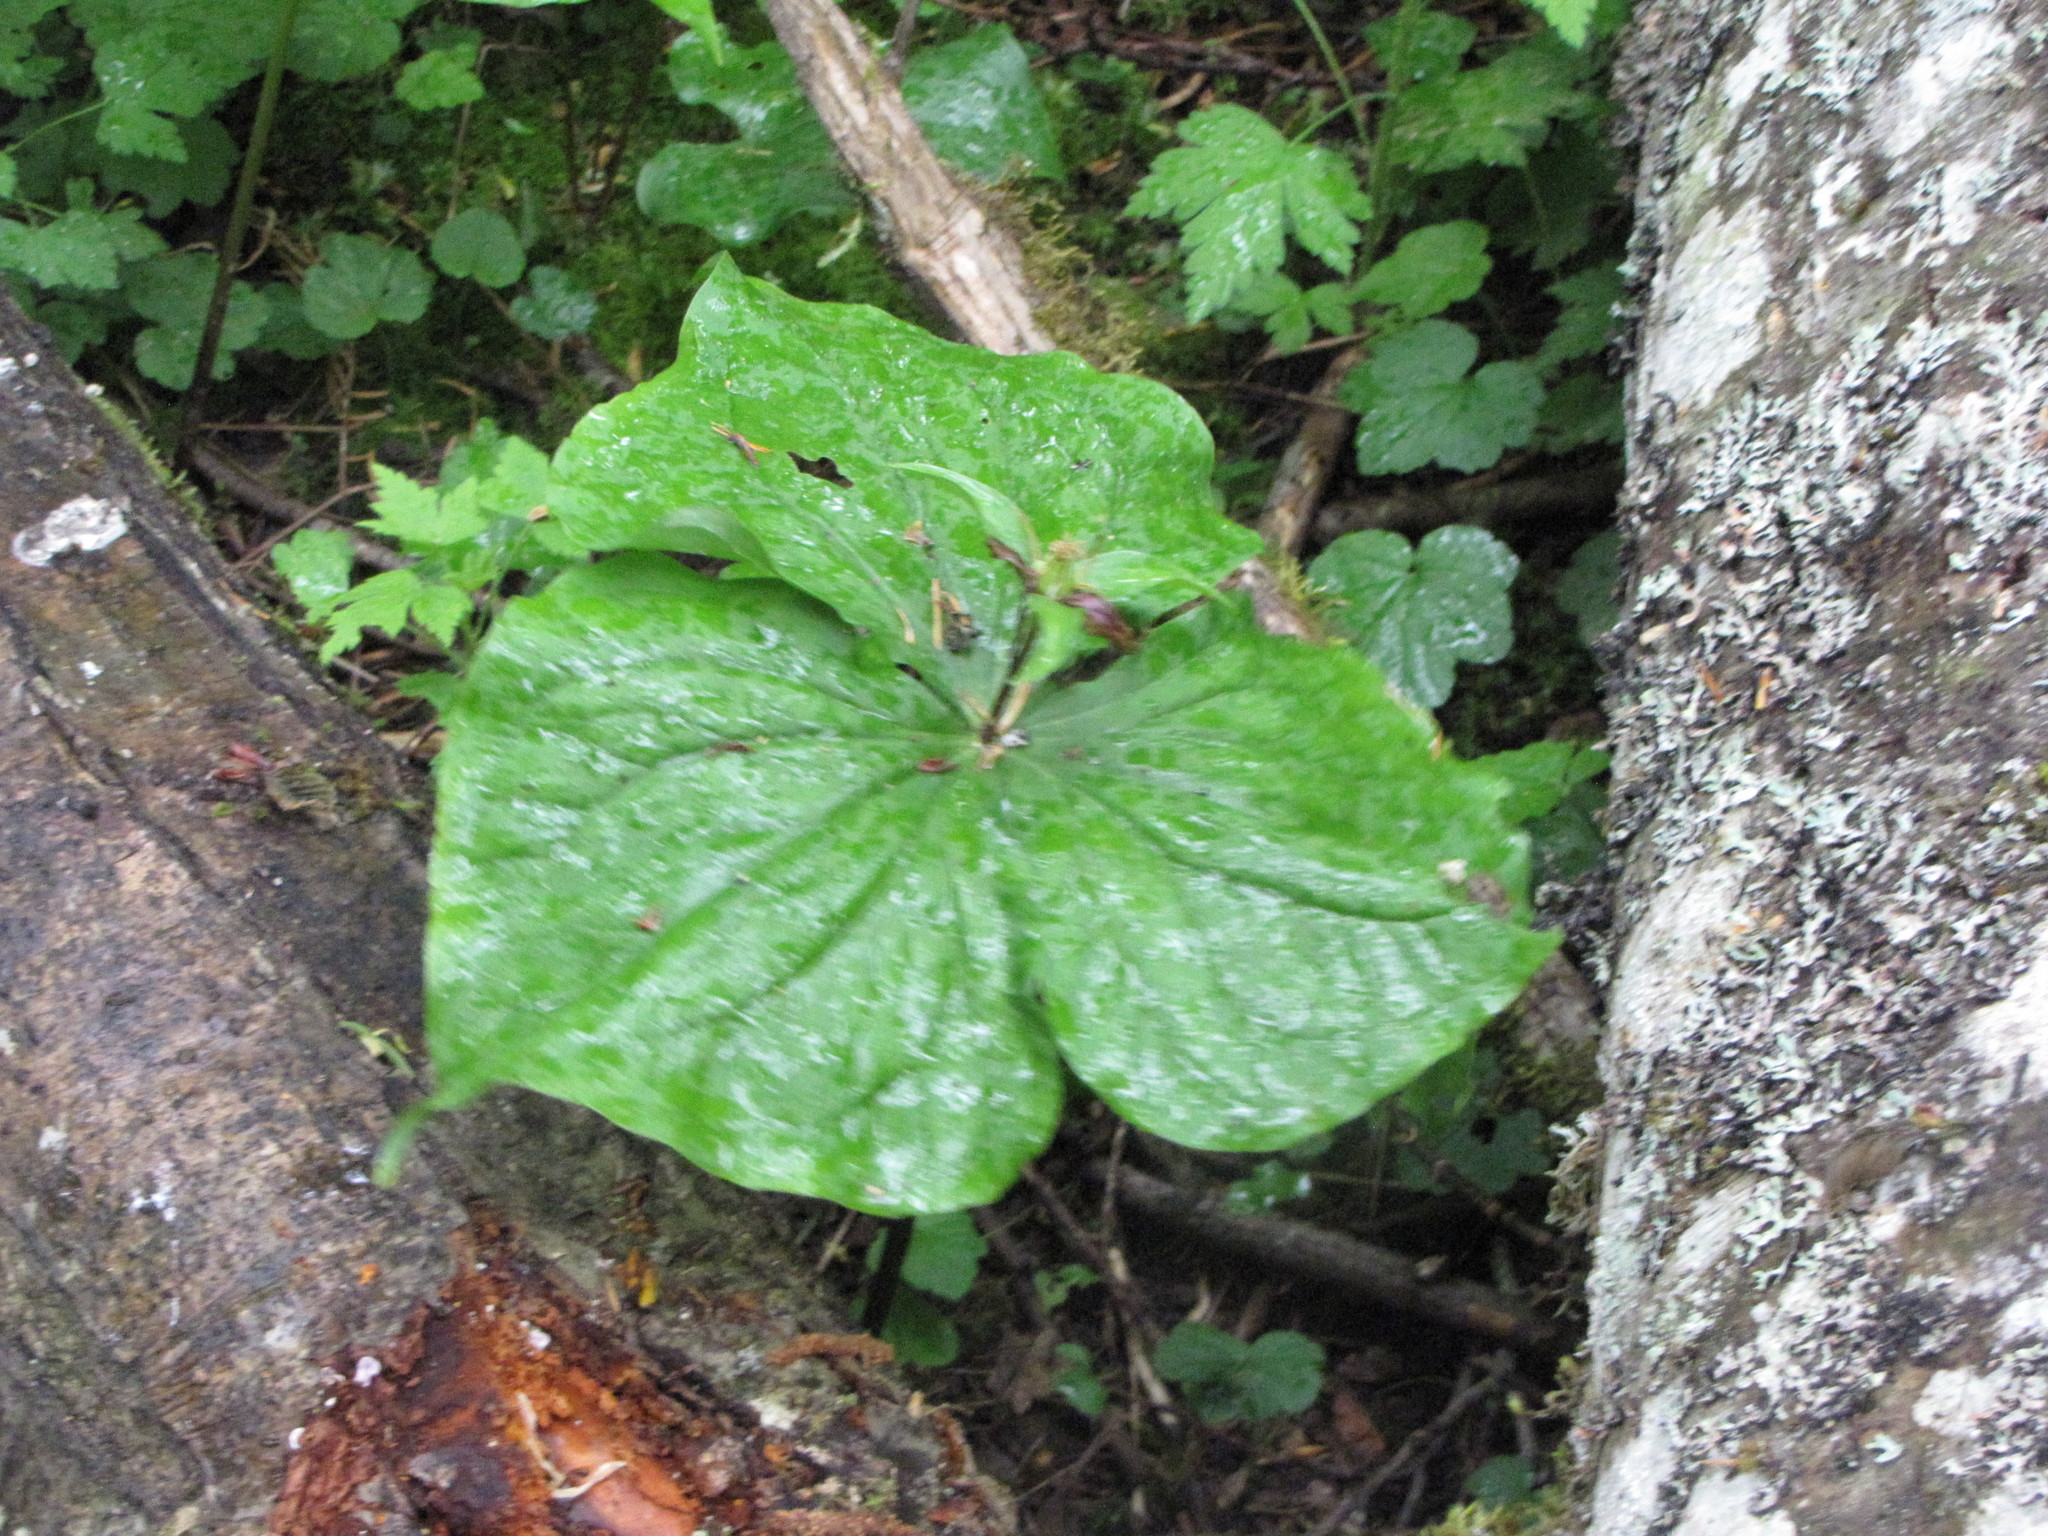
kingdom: Plantae
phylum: Tracheophyta
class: Liliopsida
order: Liliales
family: Melanthiaceae
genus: Trillium
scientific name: Trillium ovatum
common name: Pacific trillium
